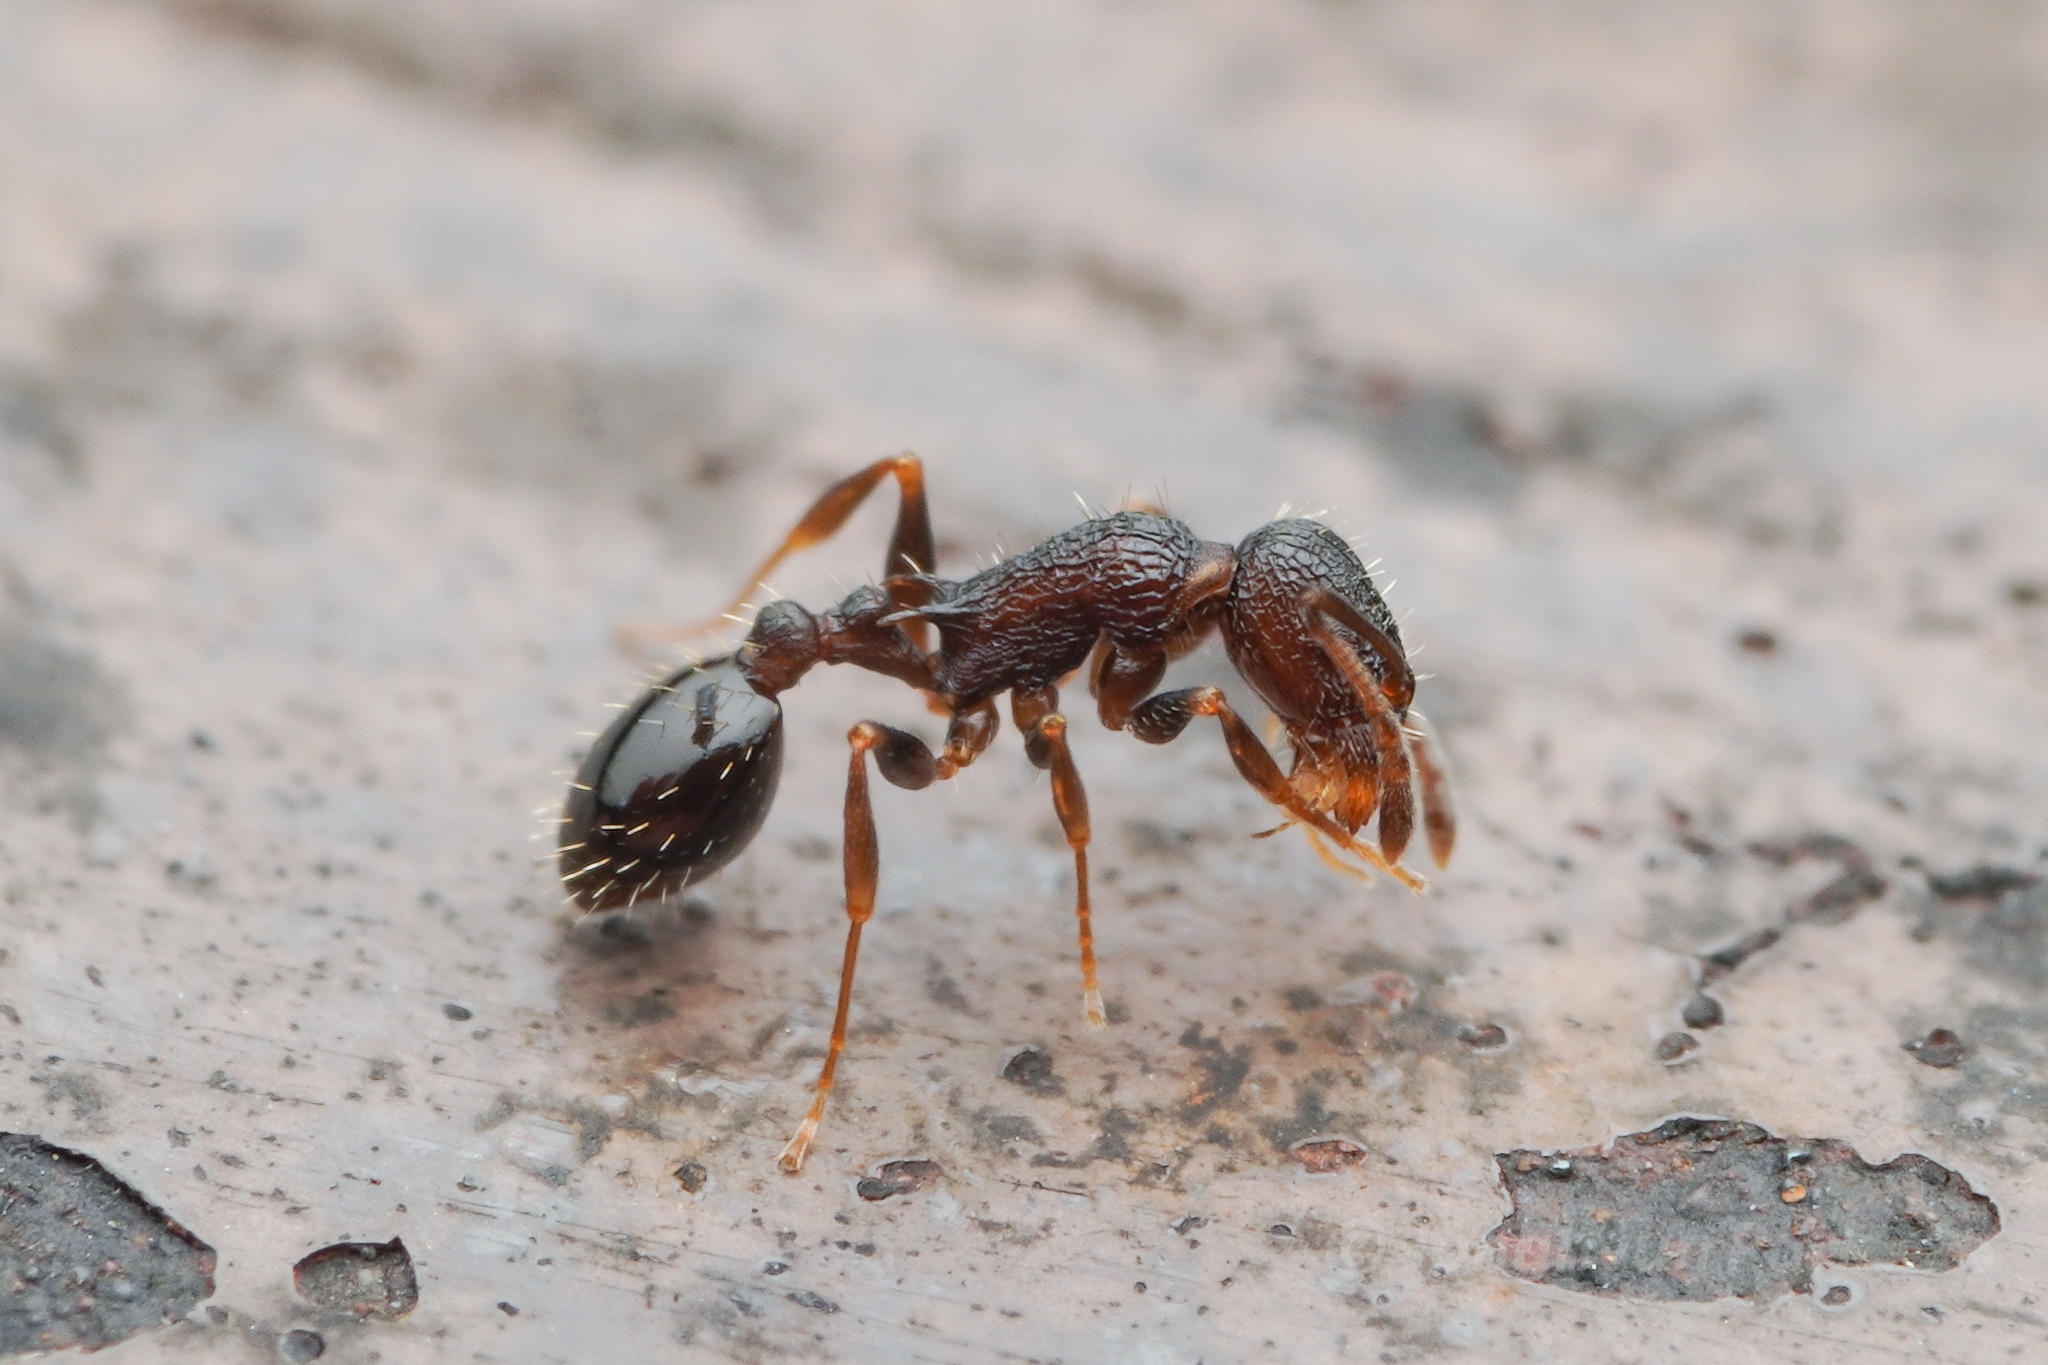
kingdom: Animalia
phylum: Arthropoda
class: Insecta
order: Hymenoptera
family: Formicidae
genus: Temnothorax
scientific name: Temnothorax
